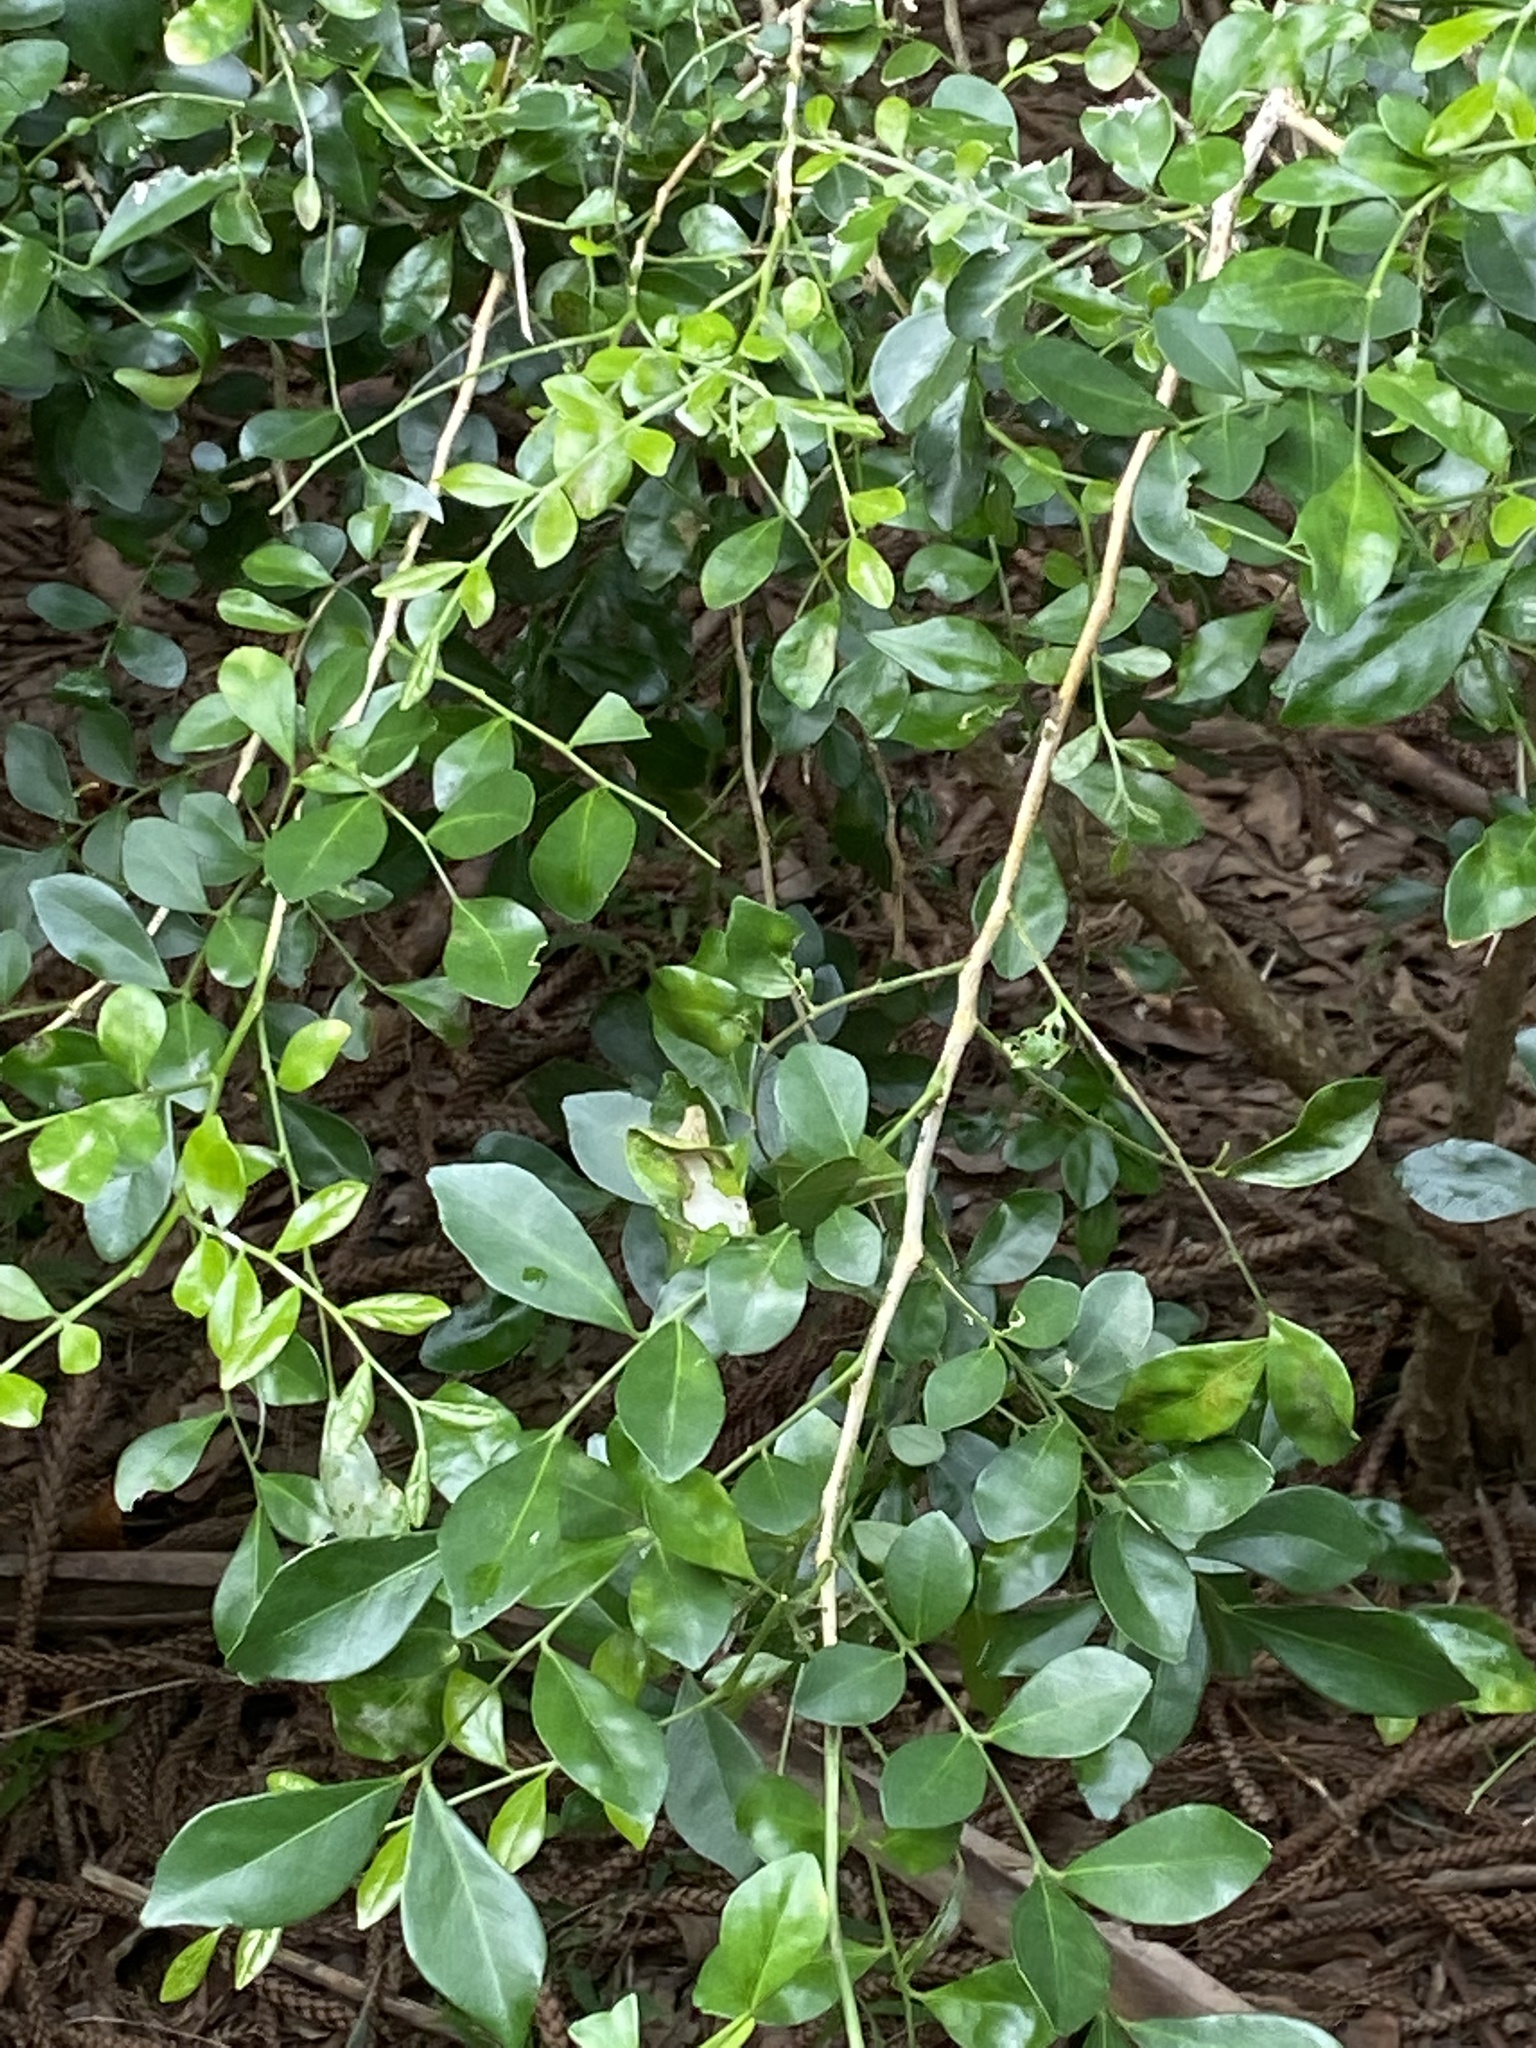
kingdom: Plantae
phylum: Tracheophyta
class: Magnoliopsida
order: Sapindales
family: Rutaceae
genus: Murraya
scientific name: Murraya paniculata
